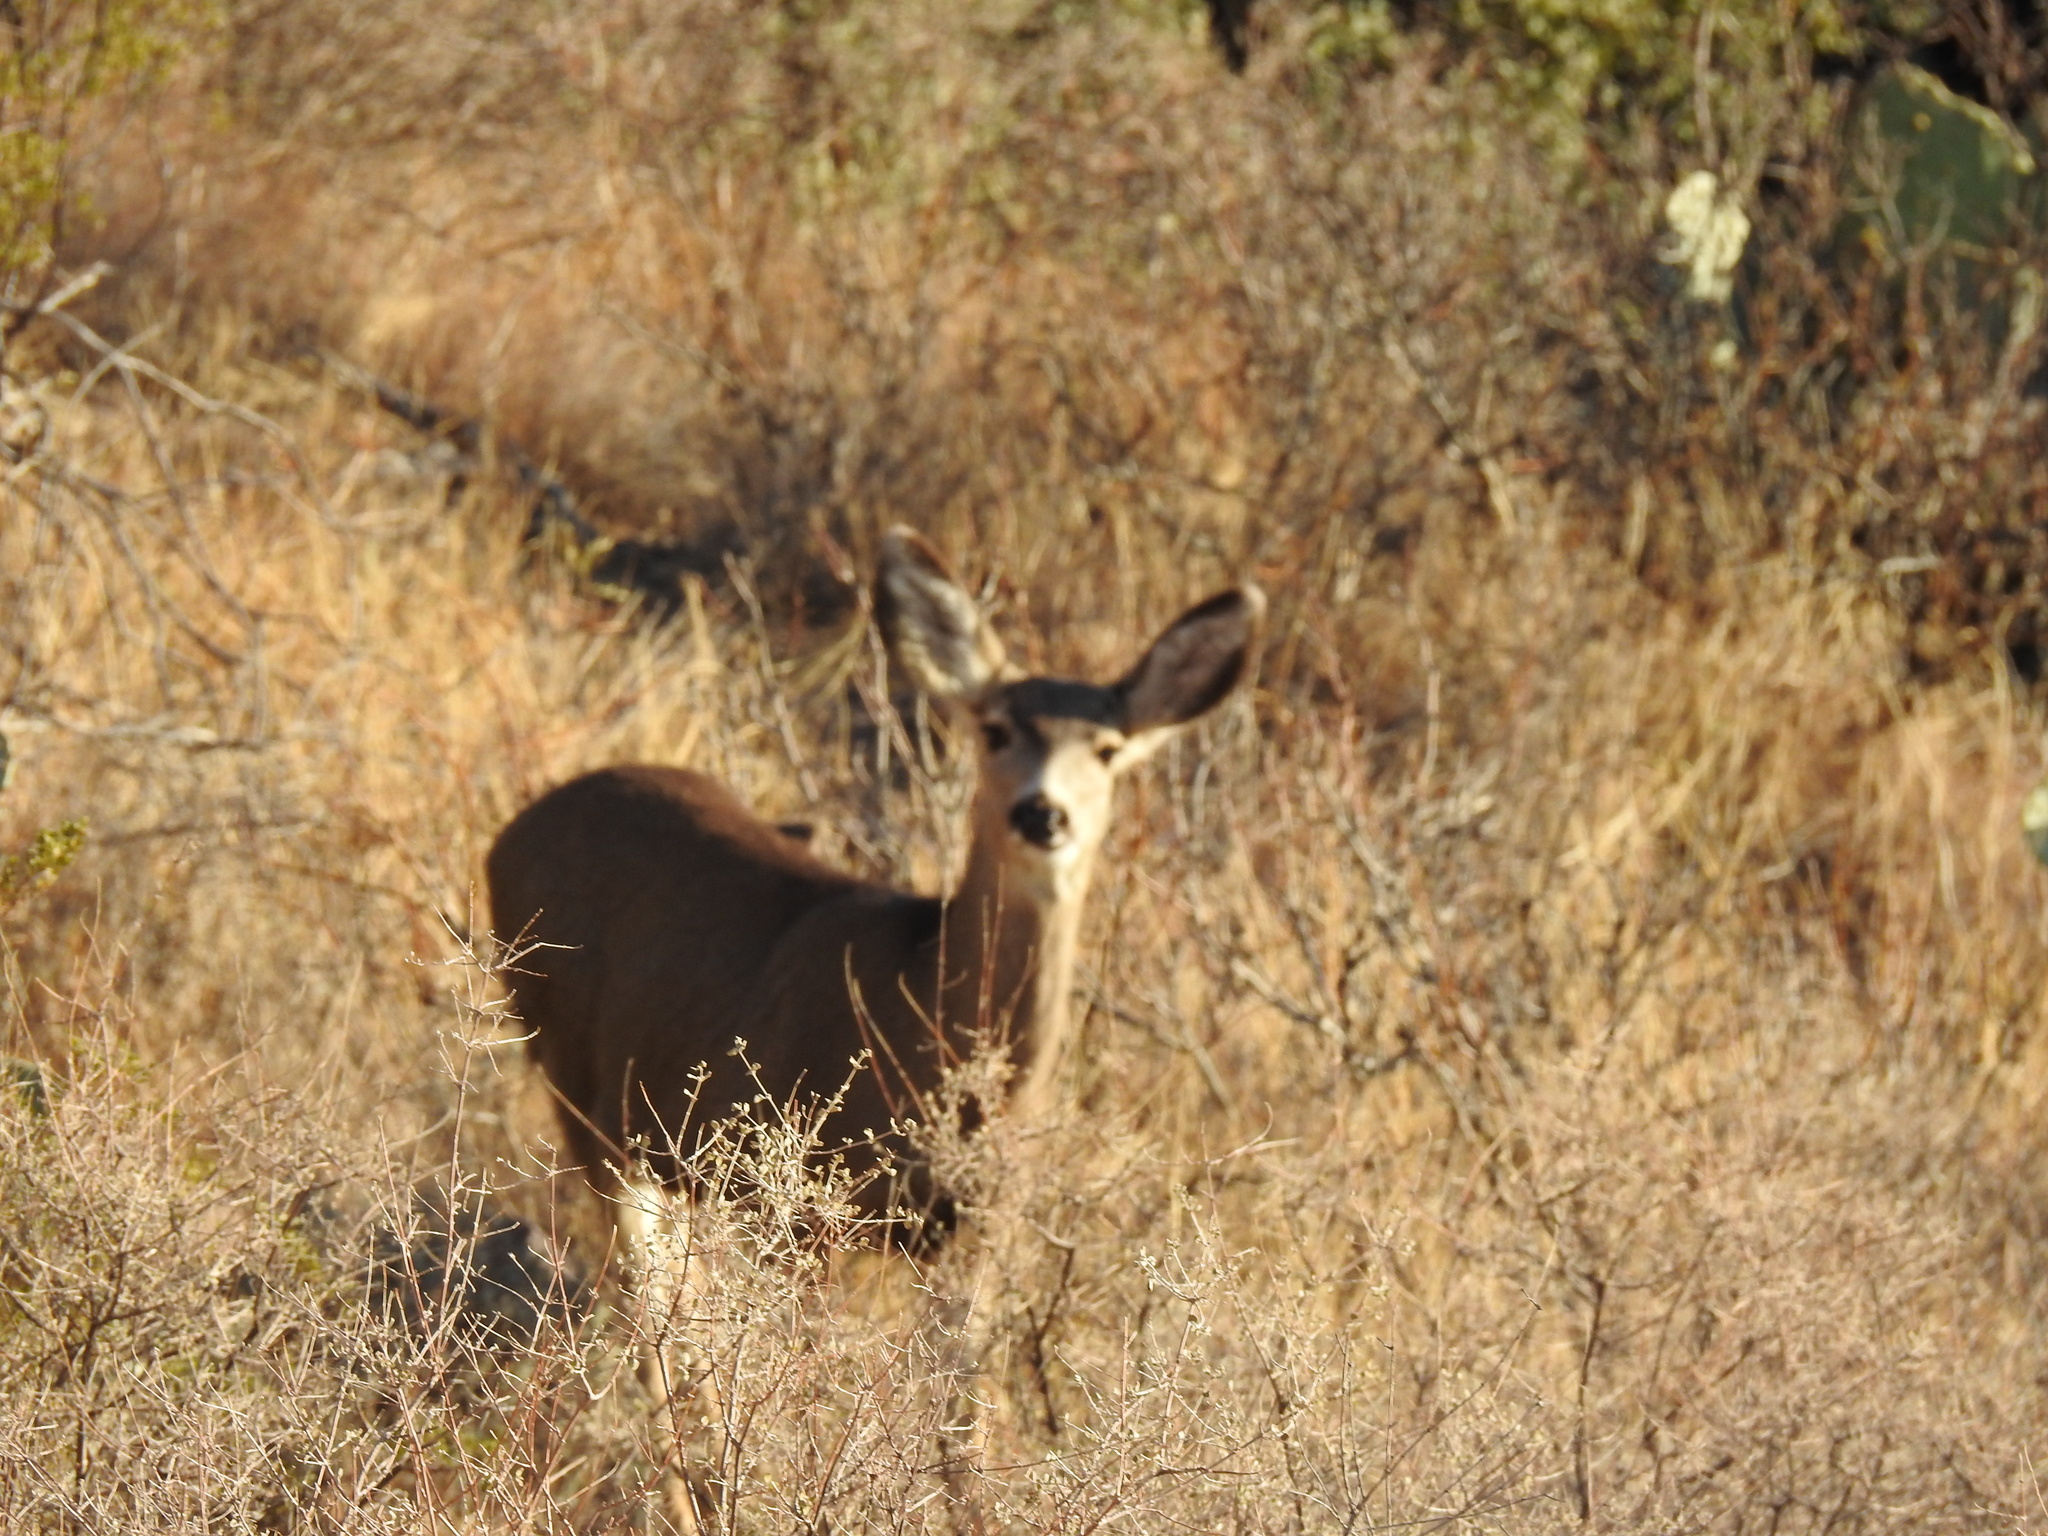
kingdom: Animalia
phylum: Chordata
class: Mammalia
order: Artiodactyla
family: Cervidae
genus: Odocoileus
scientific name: Odocoileus hemionus
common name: Mule deer
